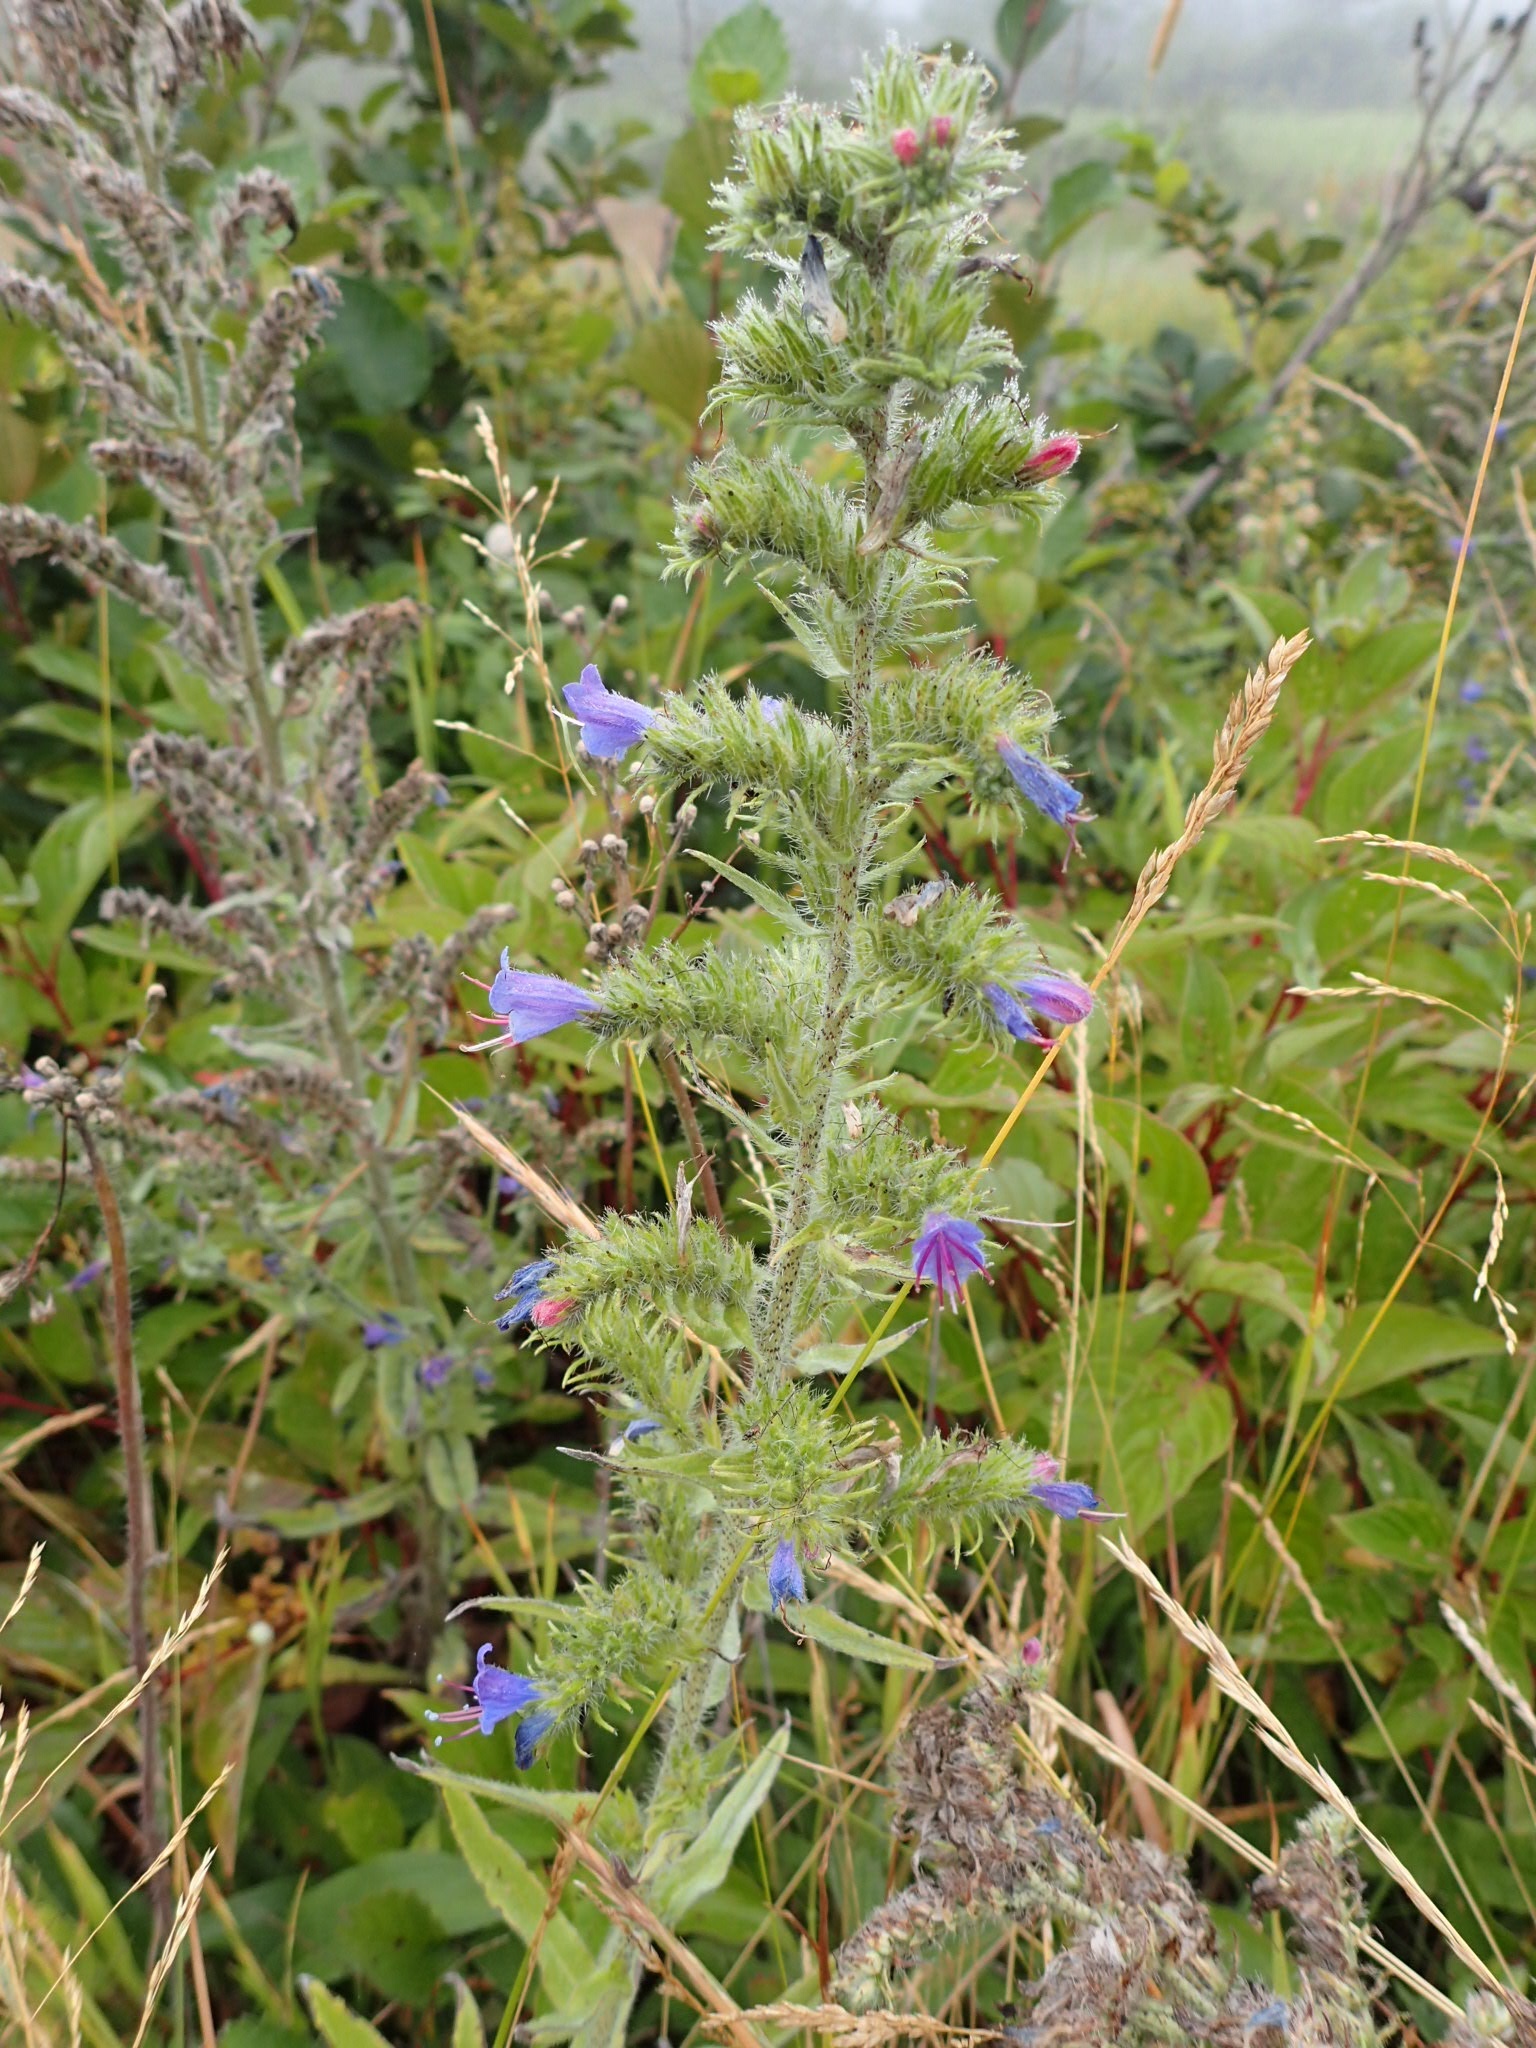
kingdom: Plantae
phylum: Tracheophyta
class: Magnoliopsida
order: Boraginales
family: Boraginaceae
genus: Echium
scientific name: Echium vulgare
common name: Common viper's bugloss
